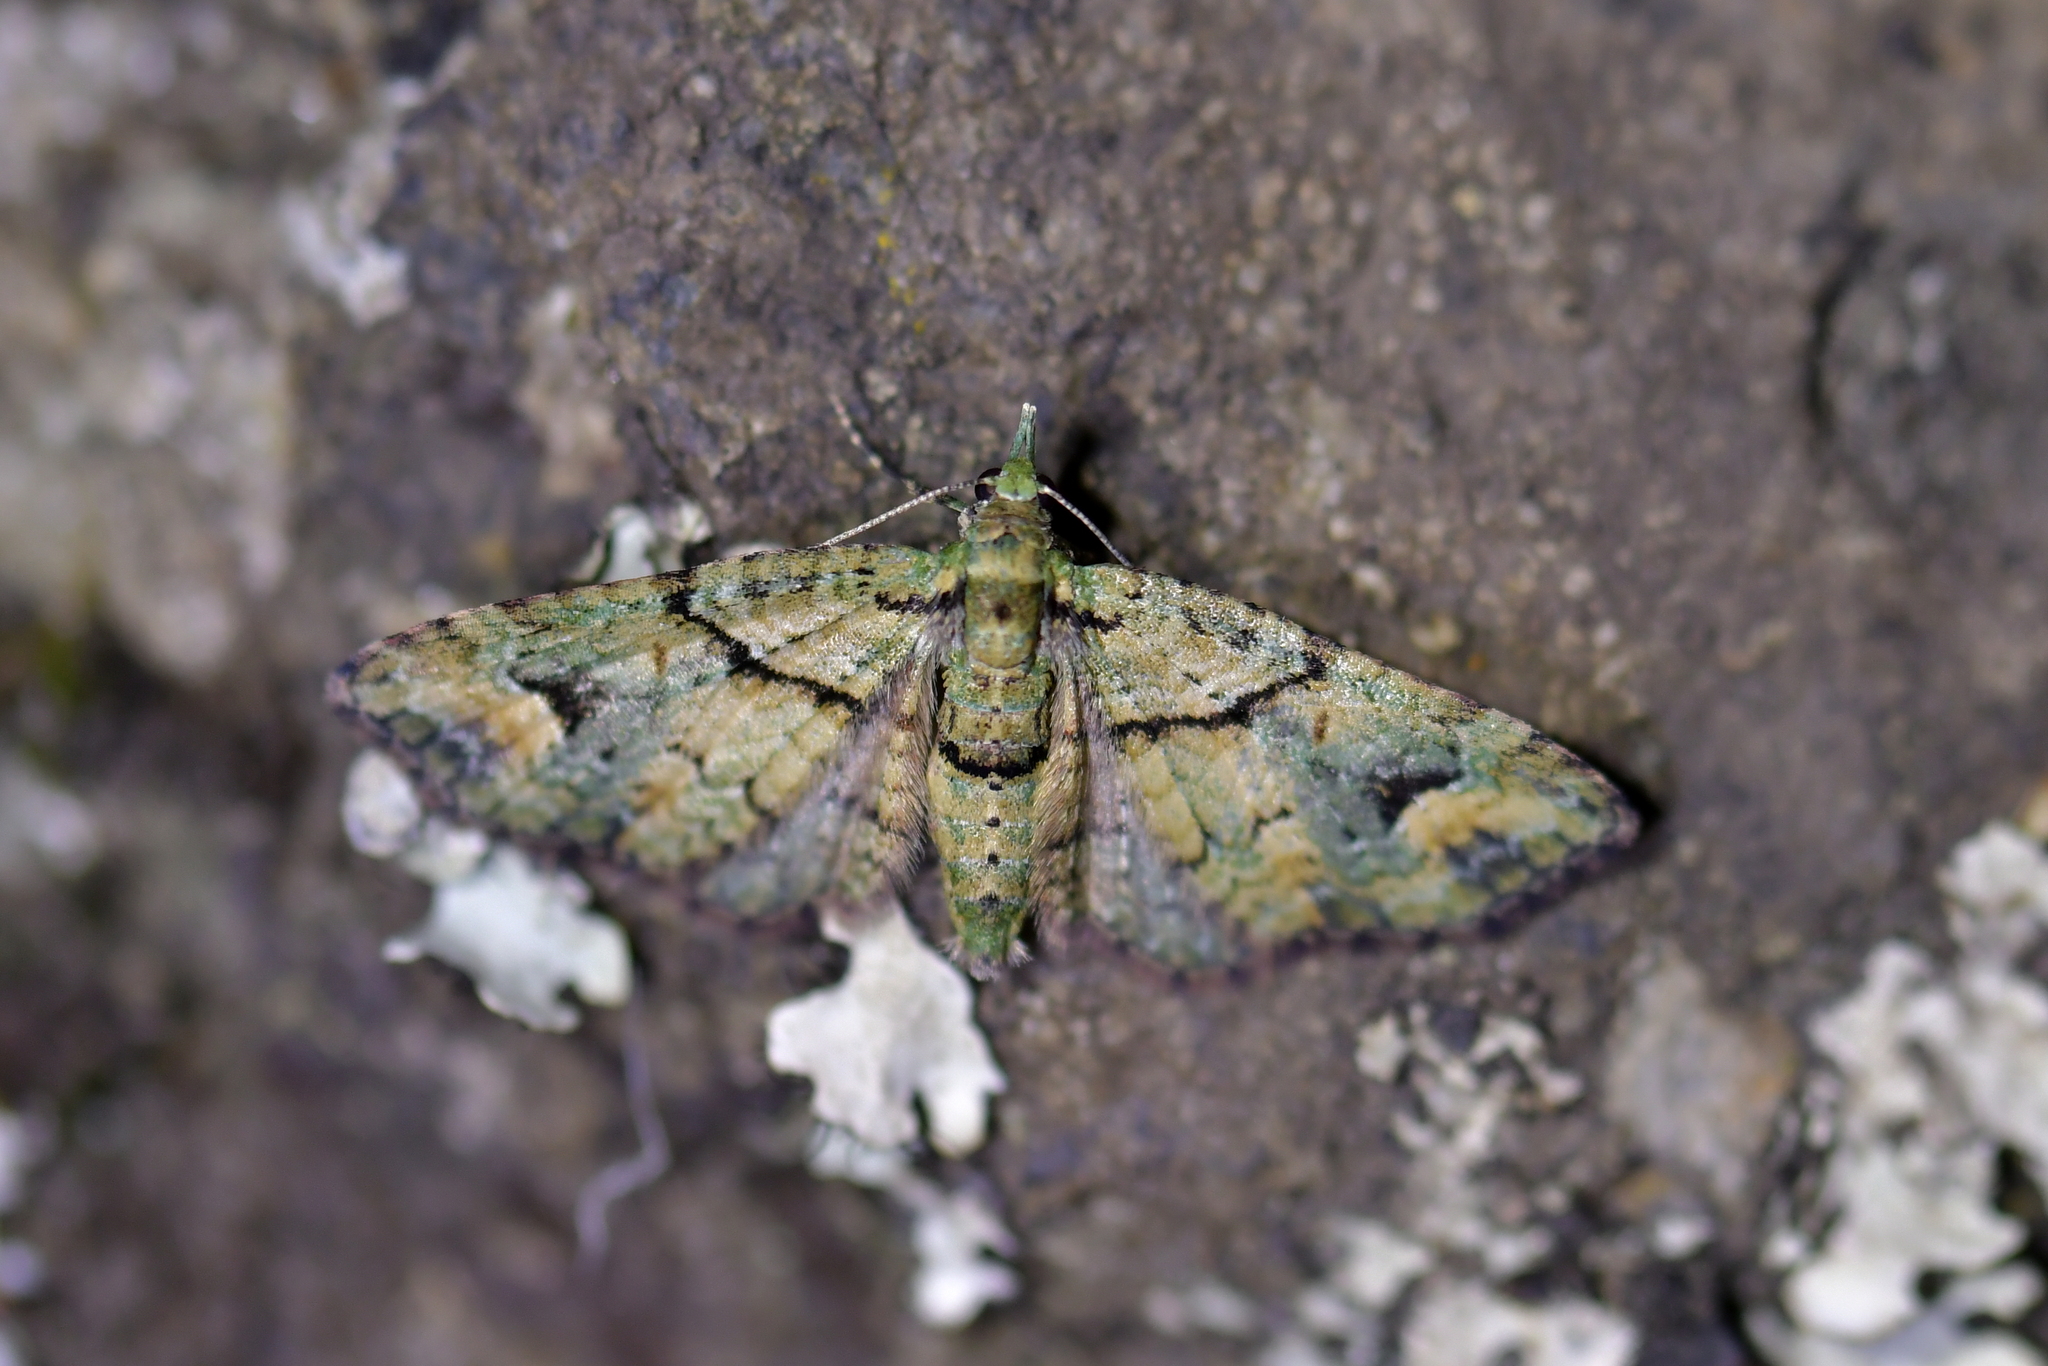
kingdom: Animalia
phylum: Arthropoda
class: Insecta
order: Lepidoptera
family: Geometridae
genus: Idaea
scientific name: Idaea mutanda
